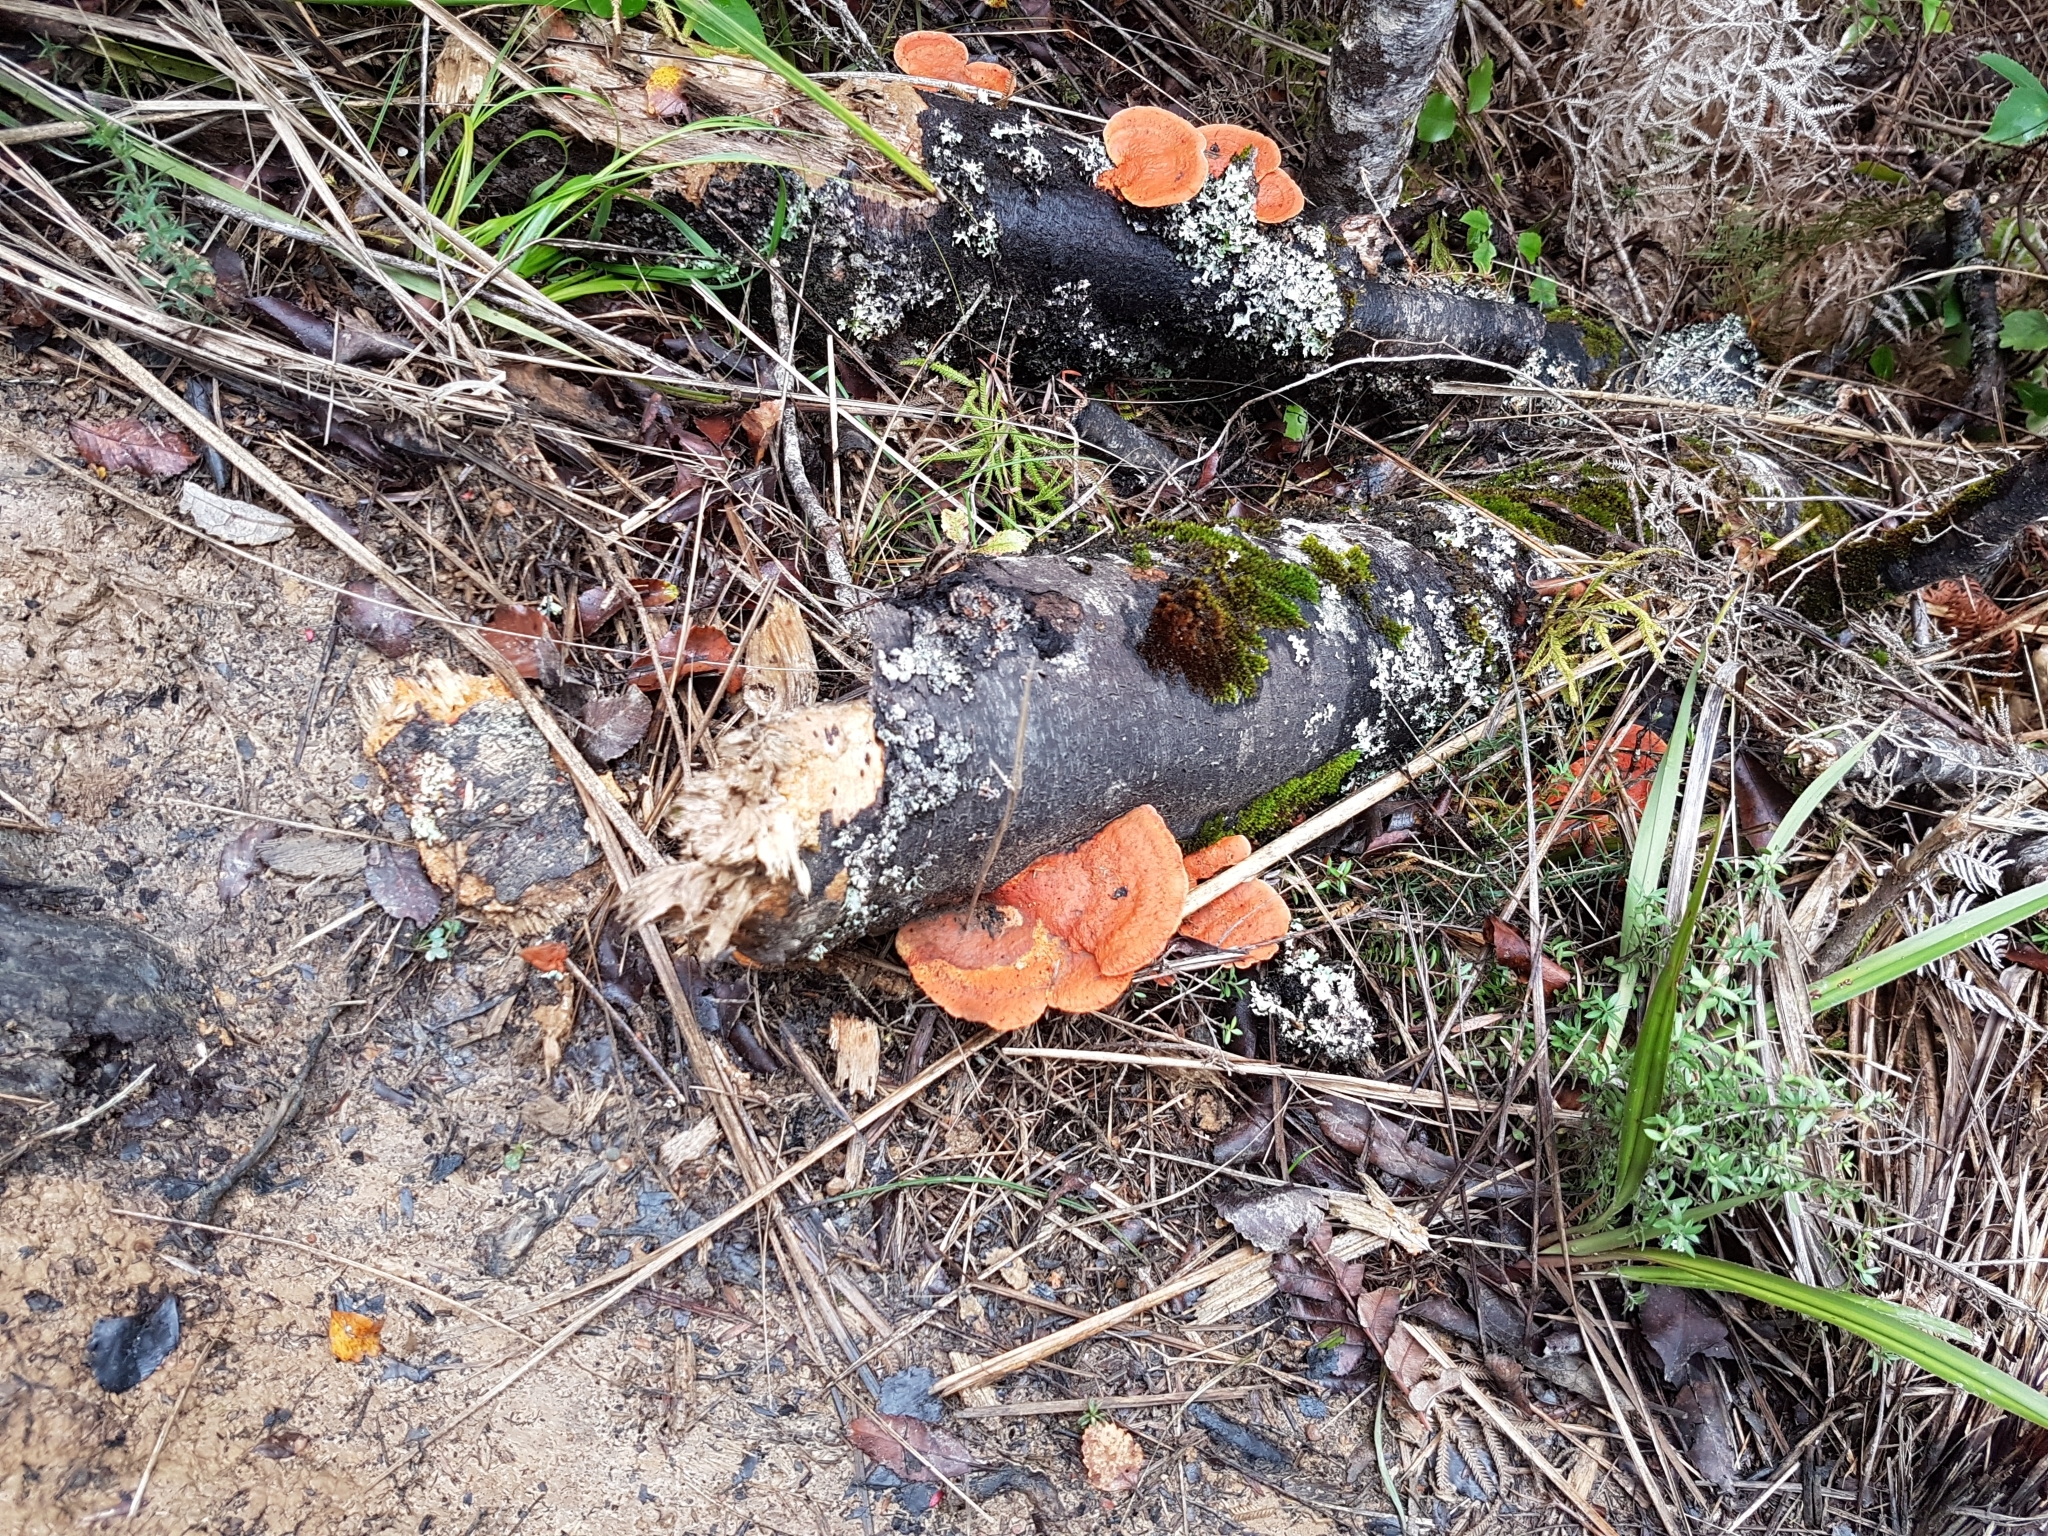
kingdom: Fungi
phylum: Basidiomycota
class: Agaricomycetes
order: Polyporales
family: Polyporaceae
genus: Trametes
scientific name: Trametes coccinea
